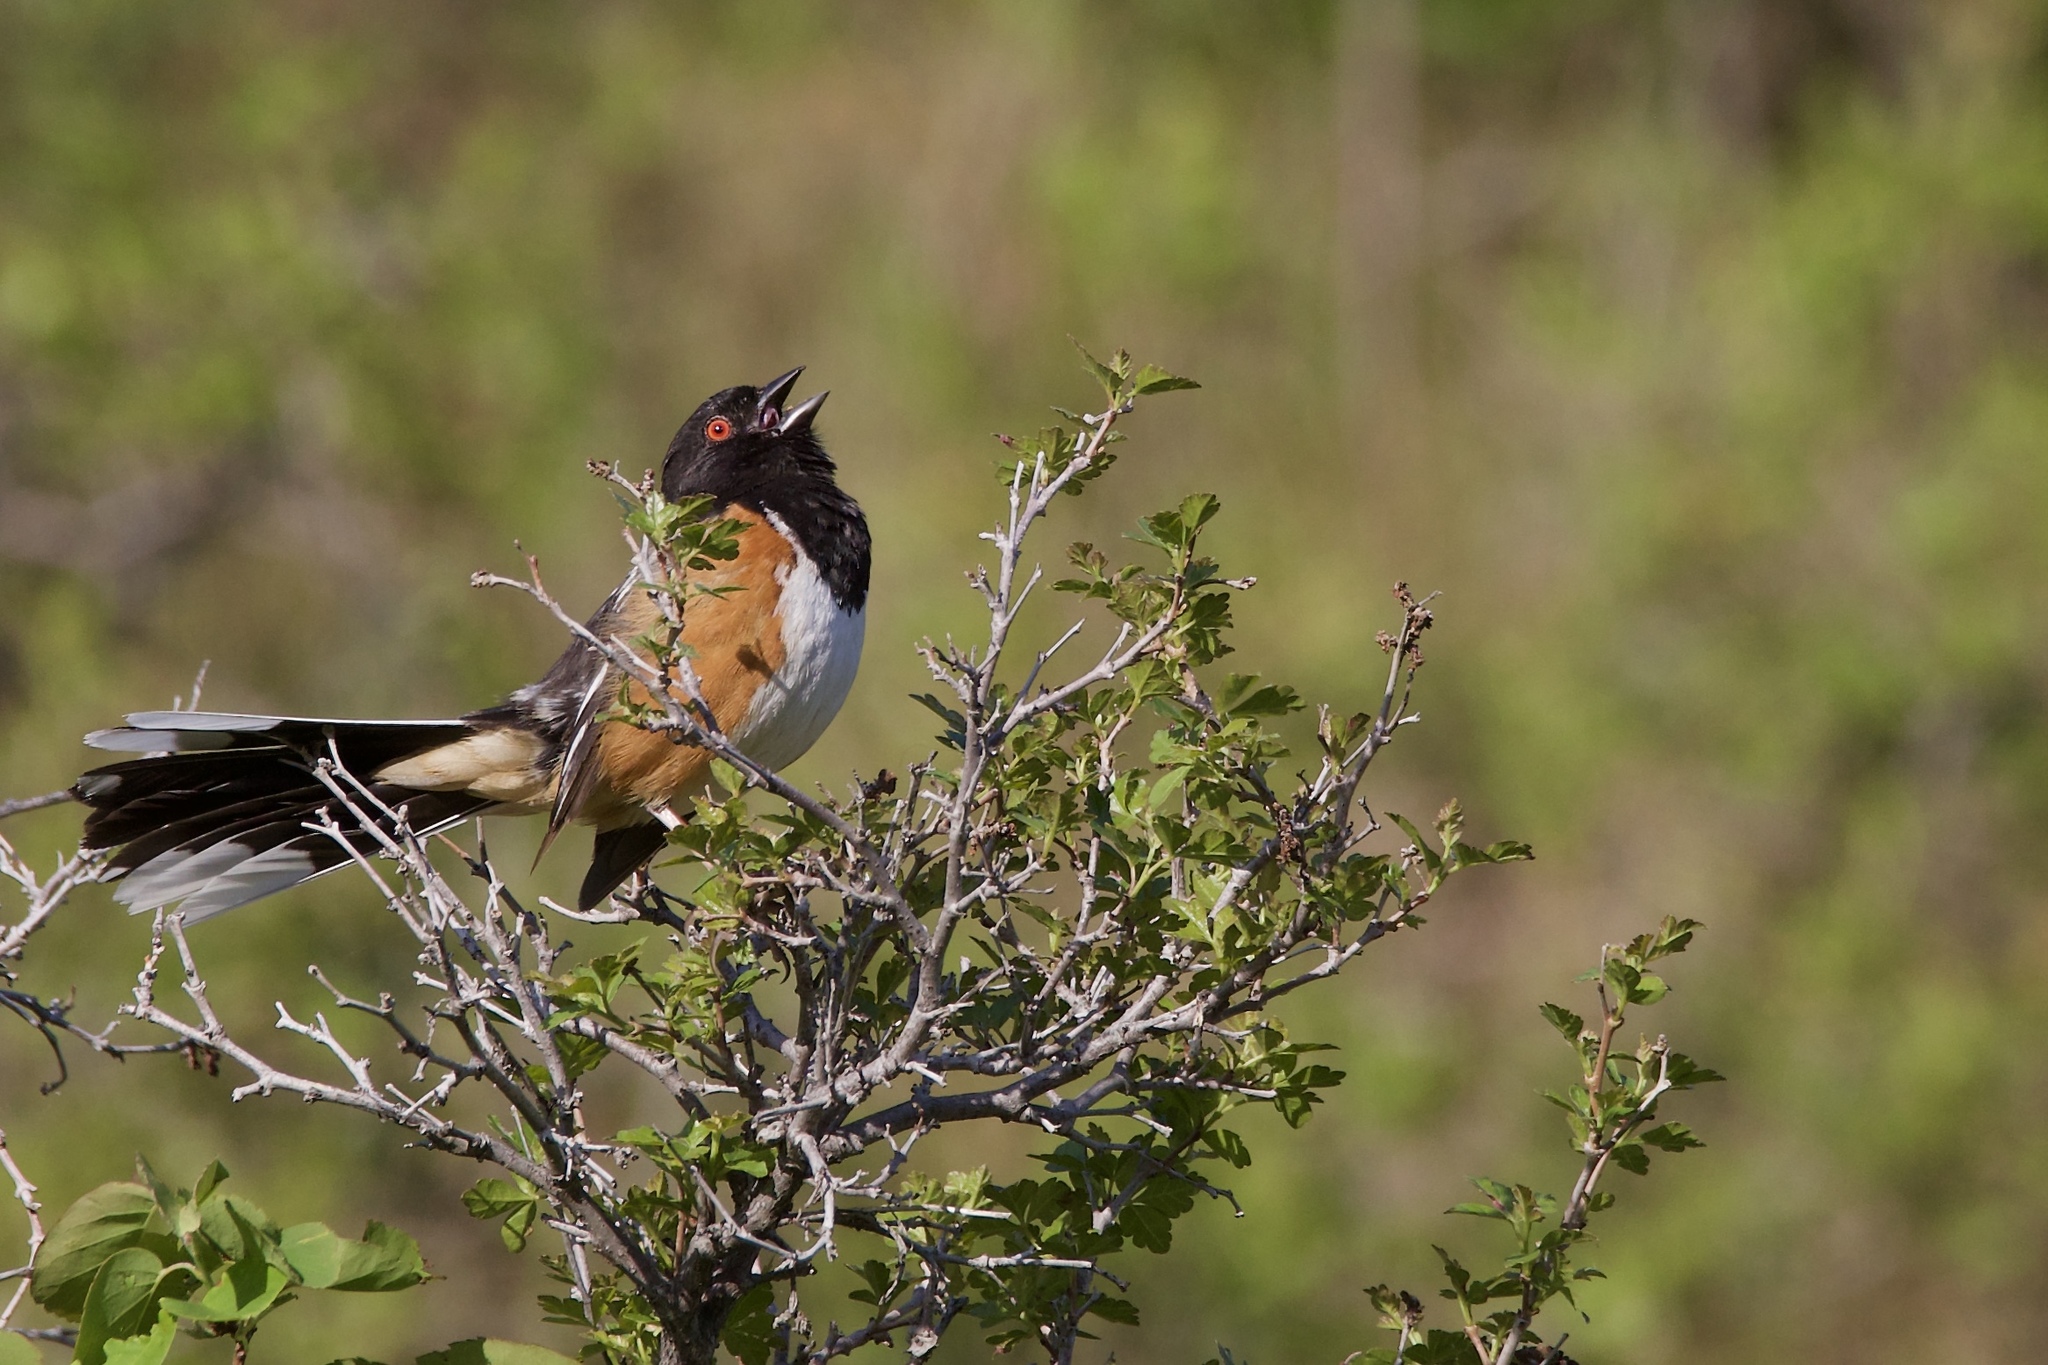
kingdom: Animalia
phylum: Chordata
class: Aves
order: Passeriformes
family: Passerellidae
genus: Pipilo
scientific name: Pipilo maculatus
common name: Spotted towhee
